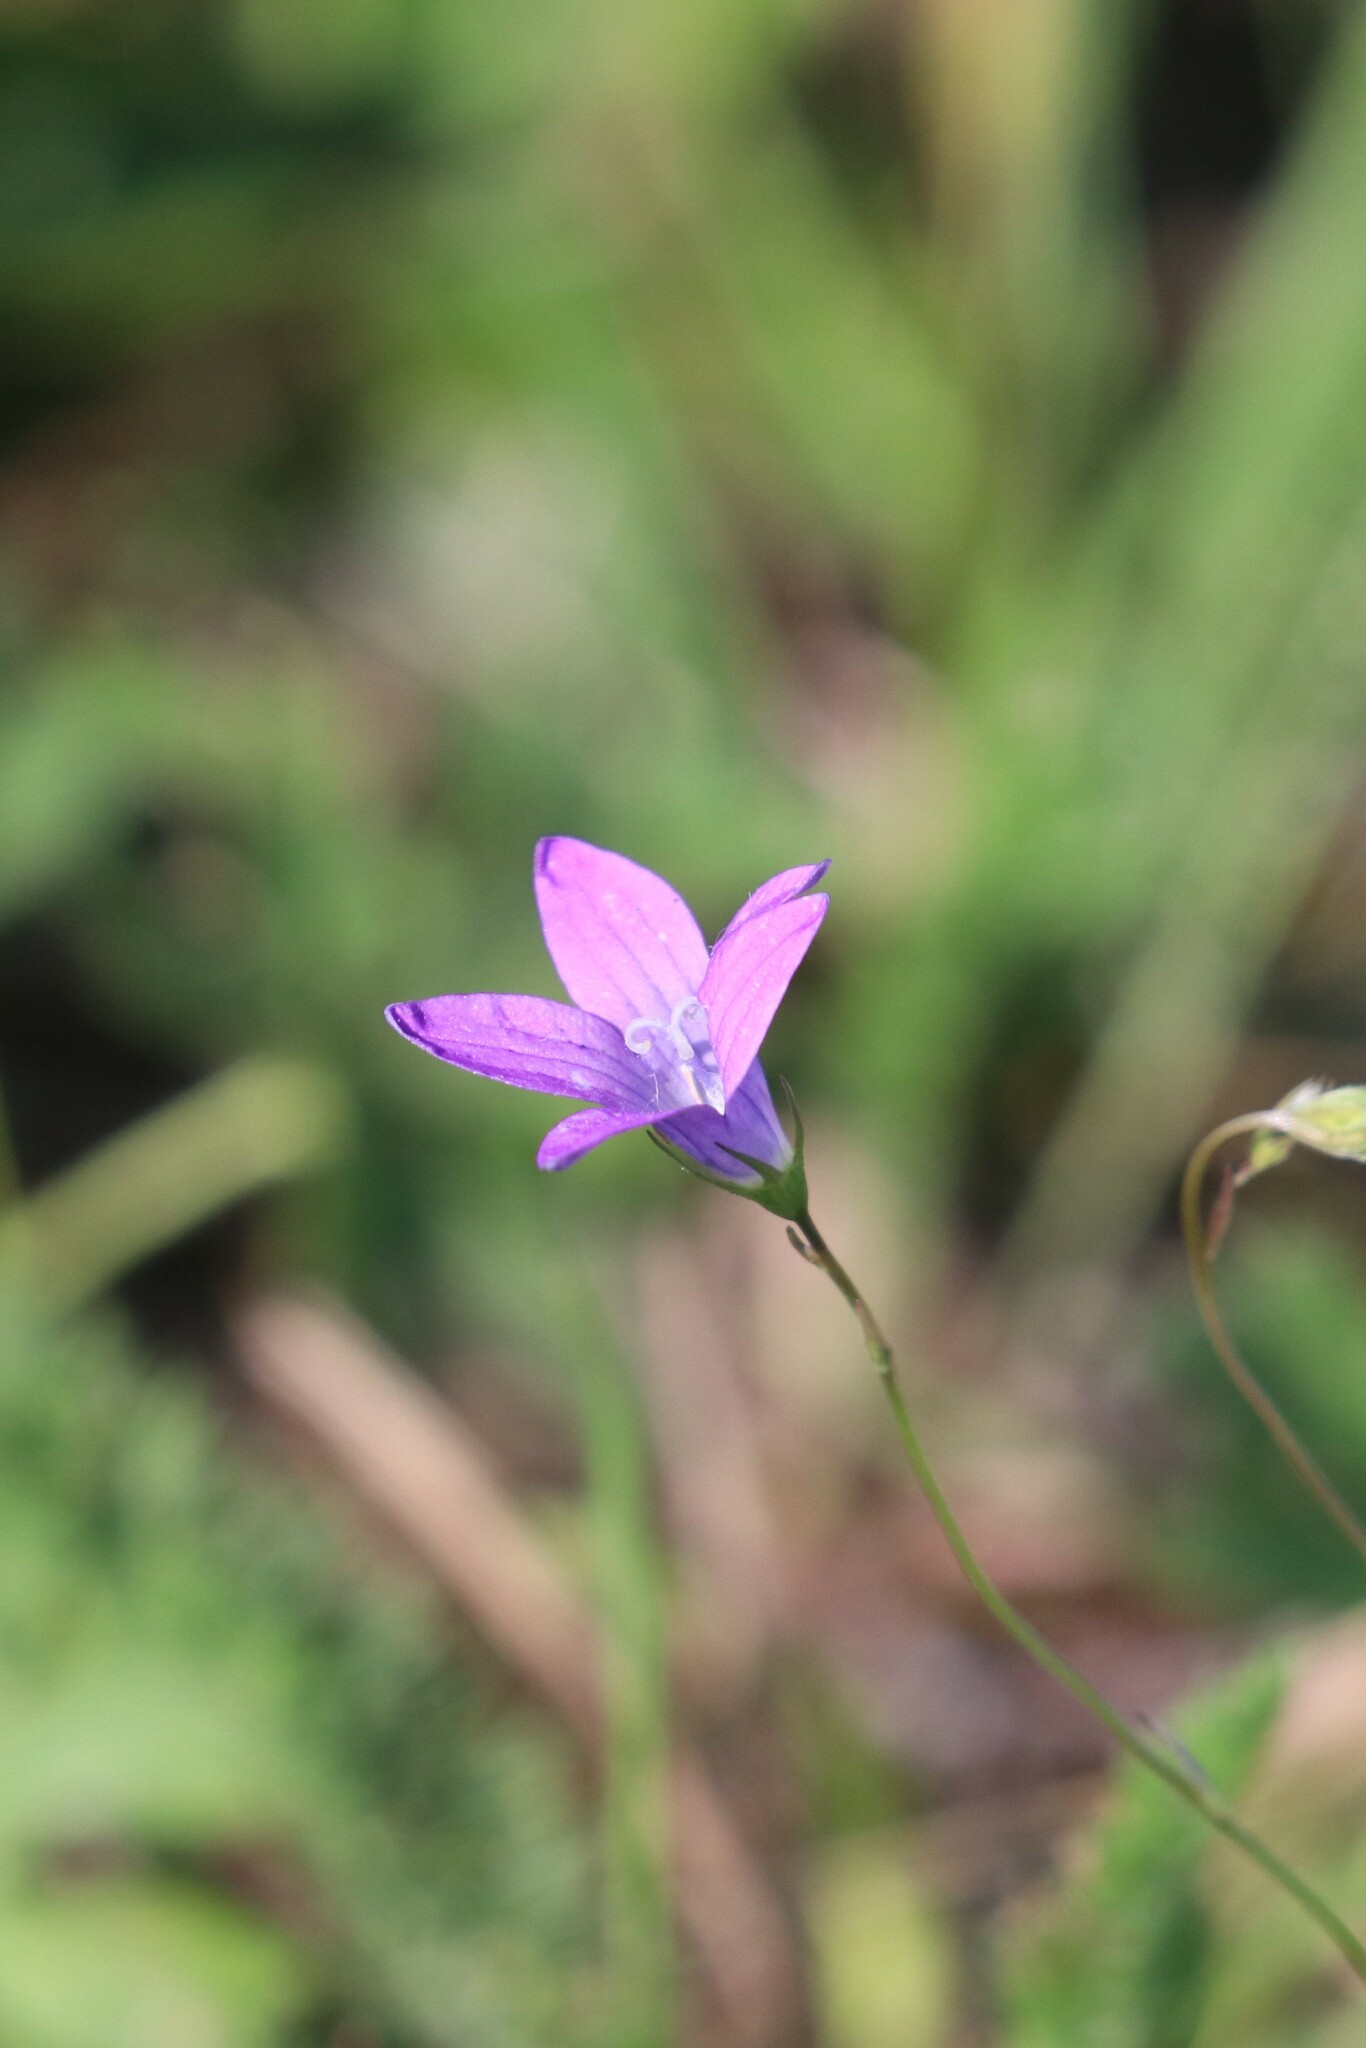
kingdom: Plantae
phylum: Tracheophyta
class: Magnoliopsida
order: Asterales
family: Campanulaceae
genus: Campanula
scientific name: Campanula patula
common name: Spreading bellflower
